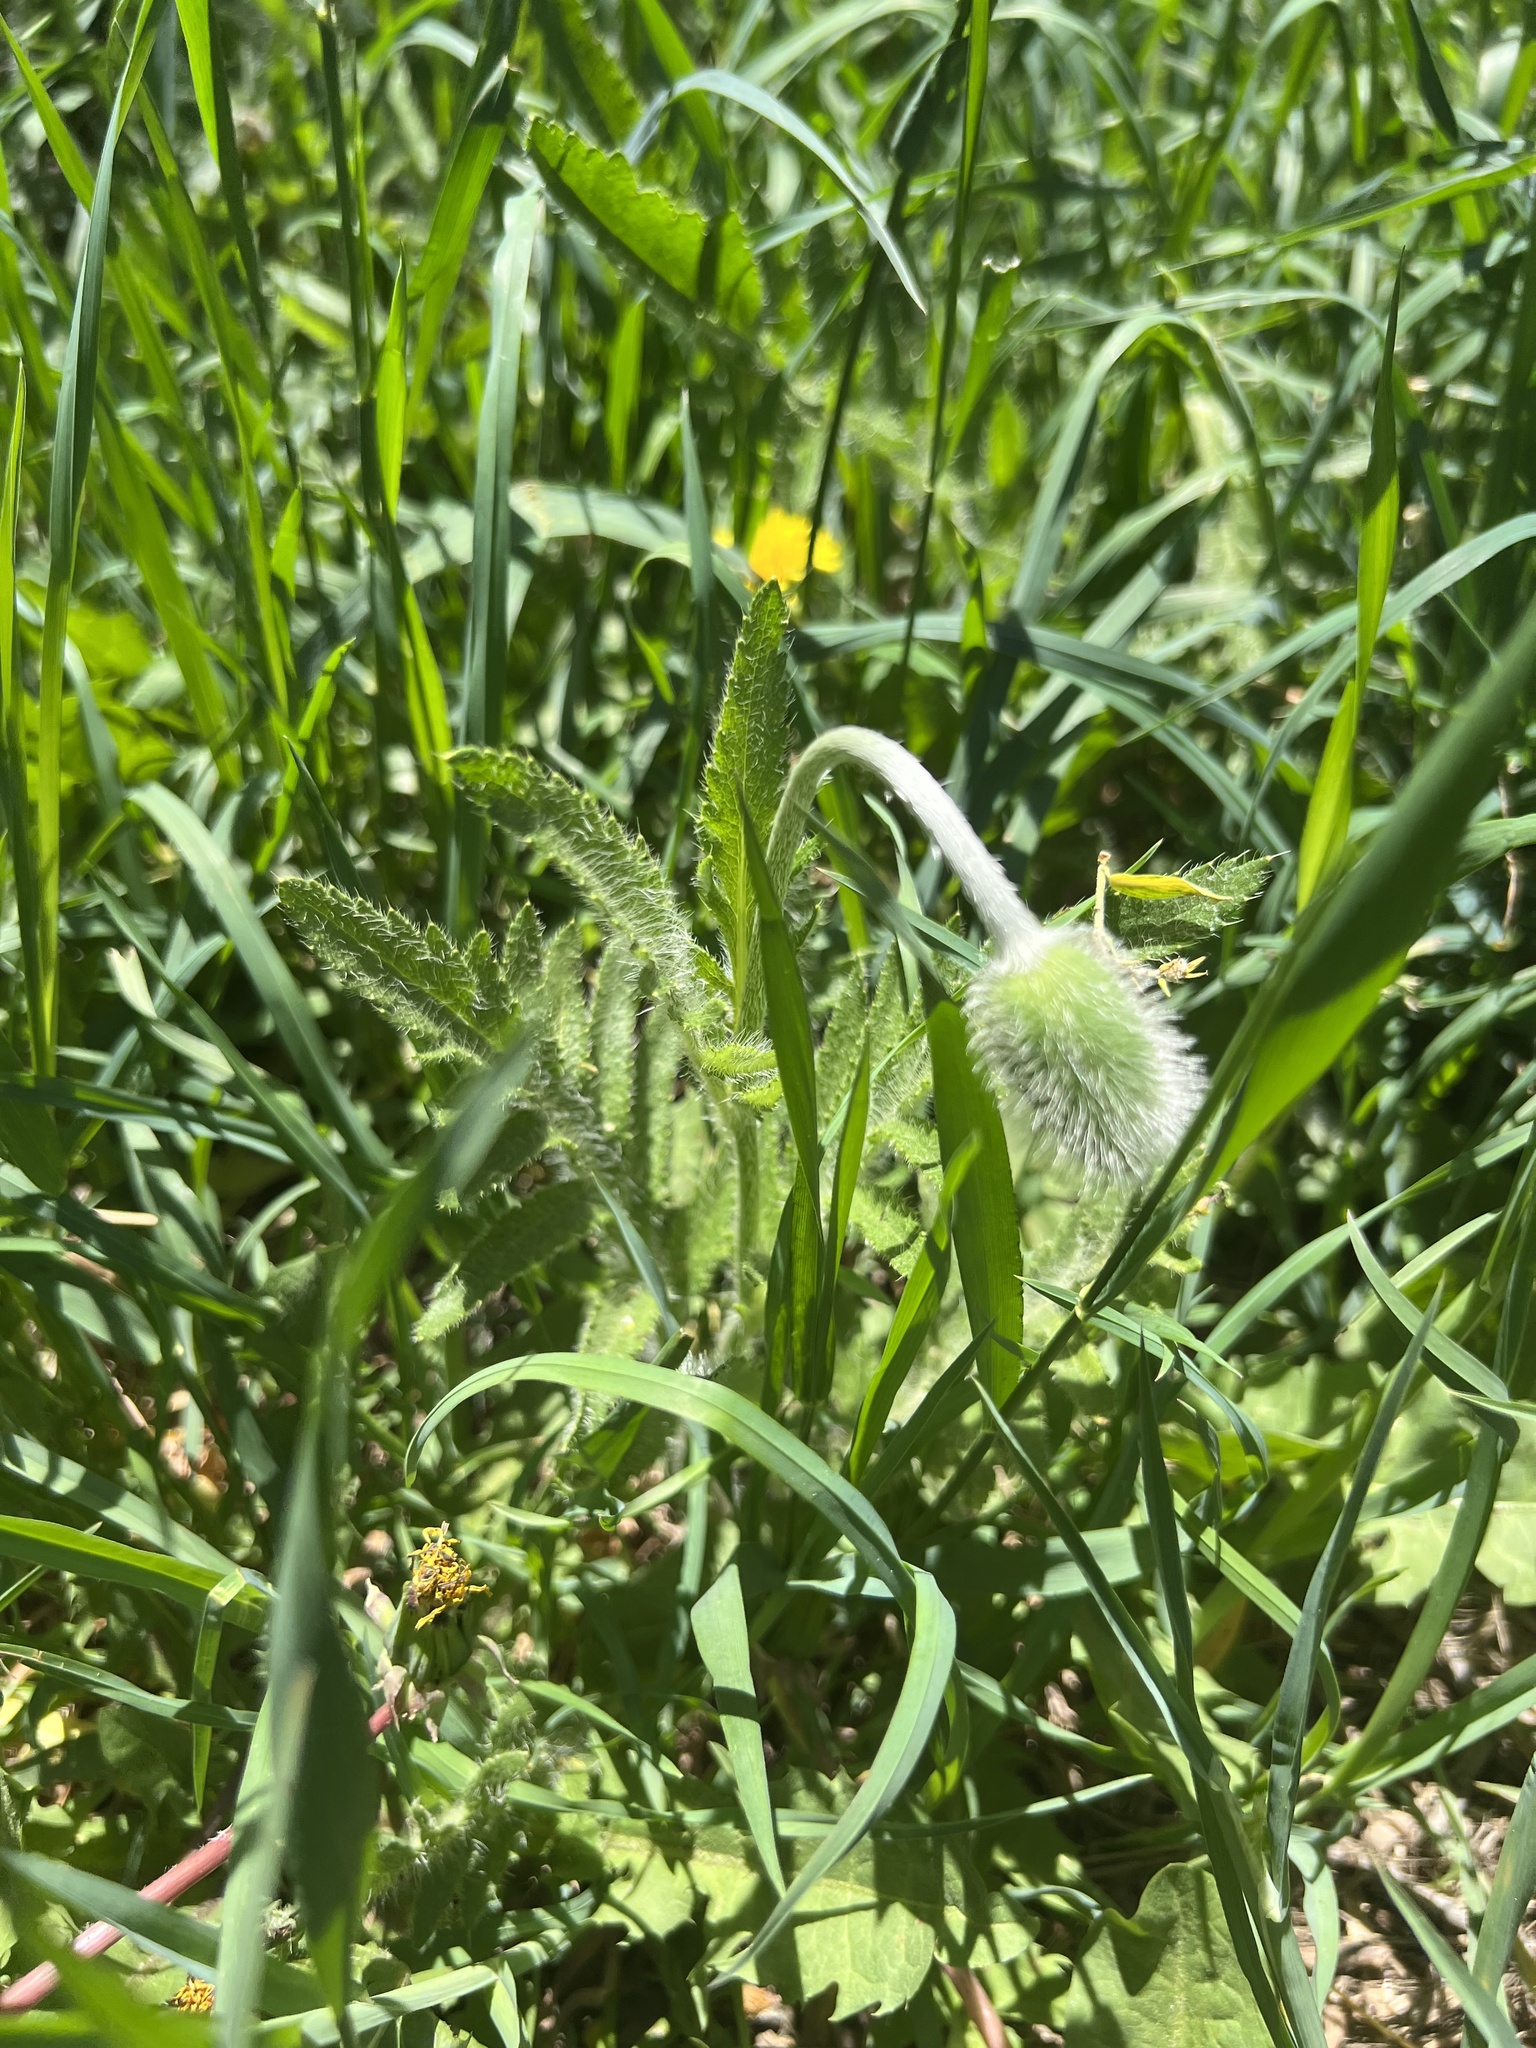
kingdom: Plantae
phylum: Tracheophyta
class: Magnoliopsida
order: Ranunculales
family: Papaveraceae
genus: Papaver
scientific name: Papaver orientale
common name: Oriental poppy
